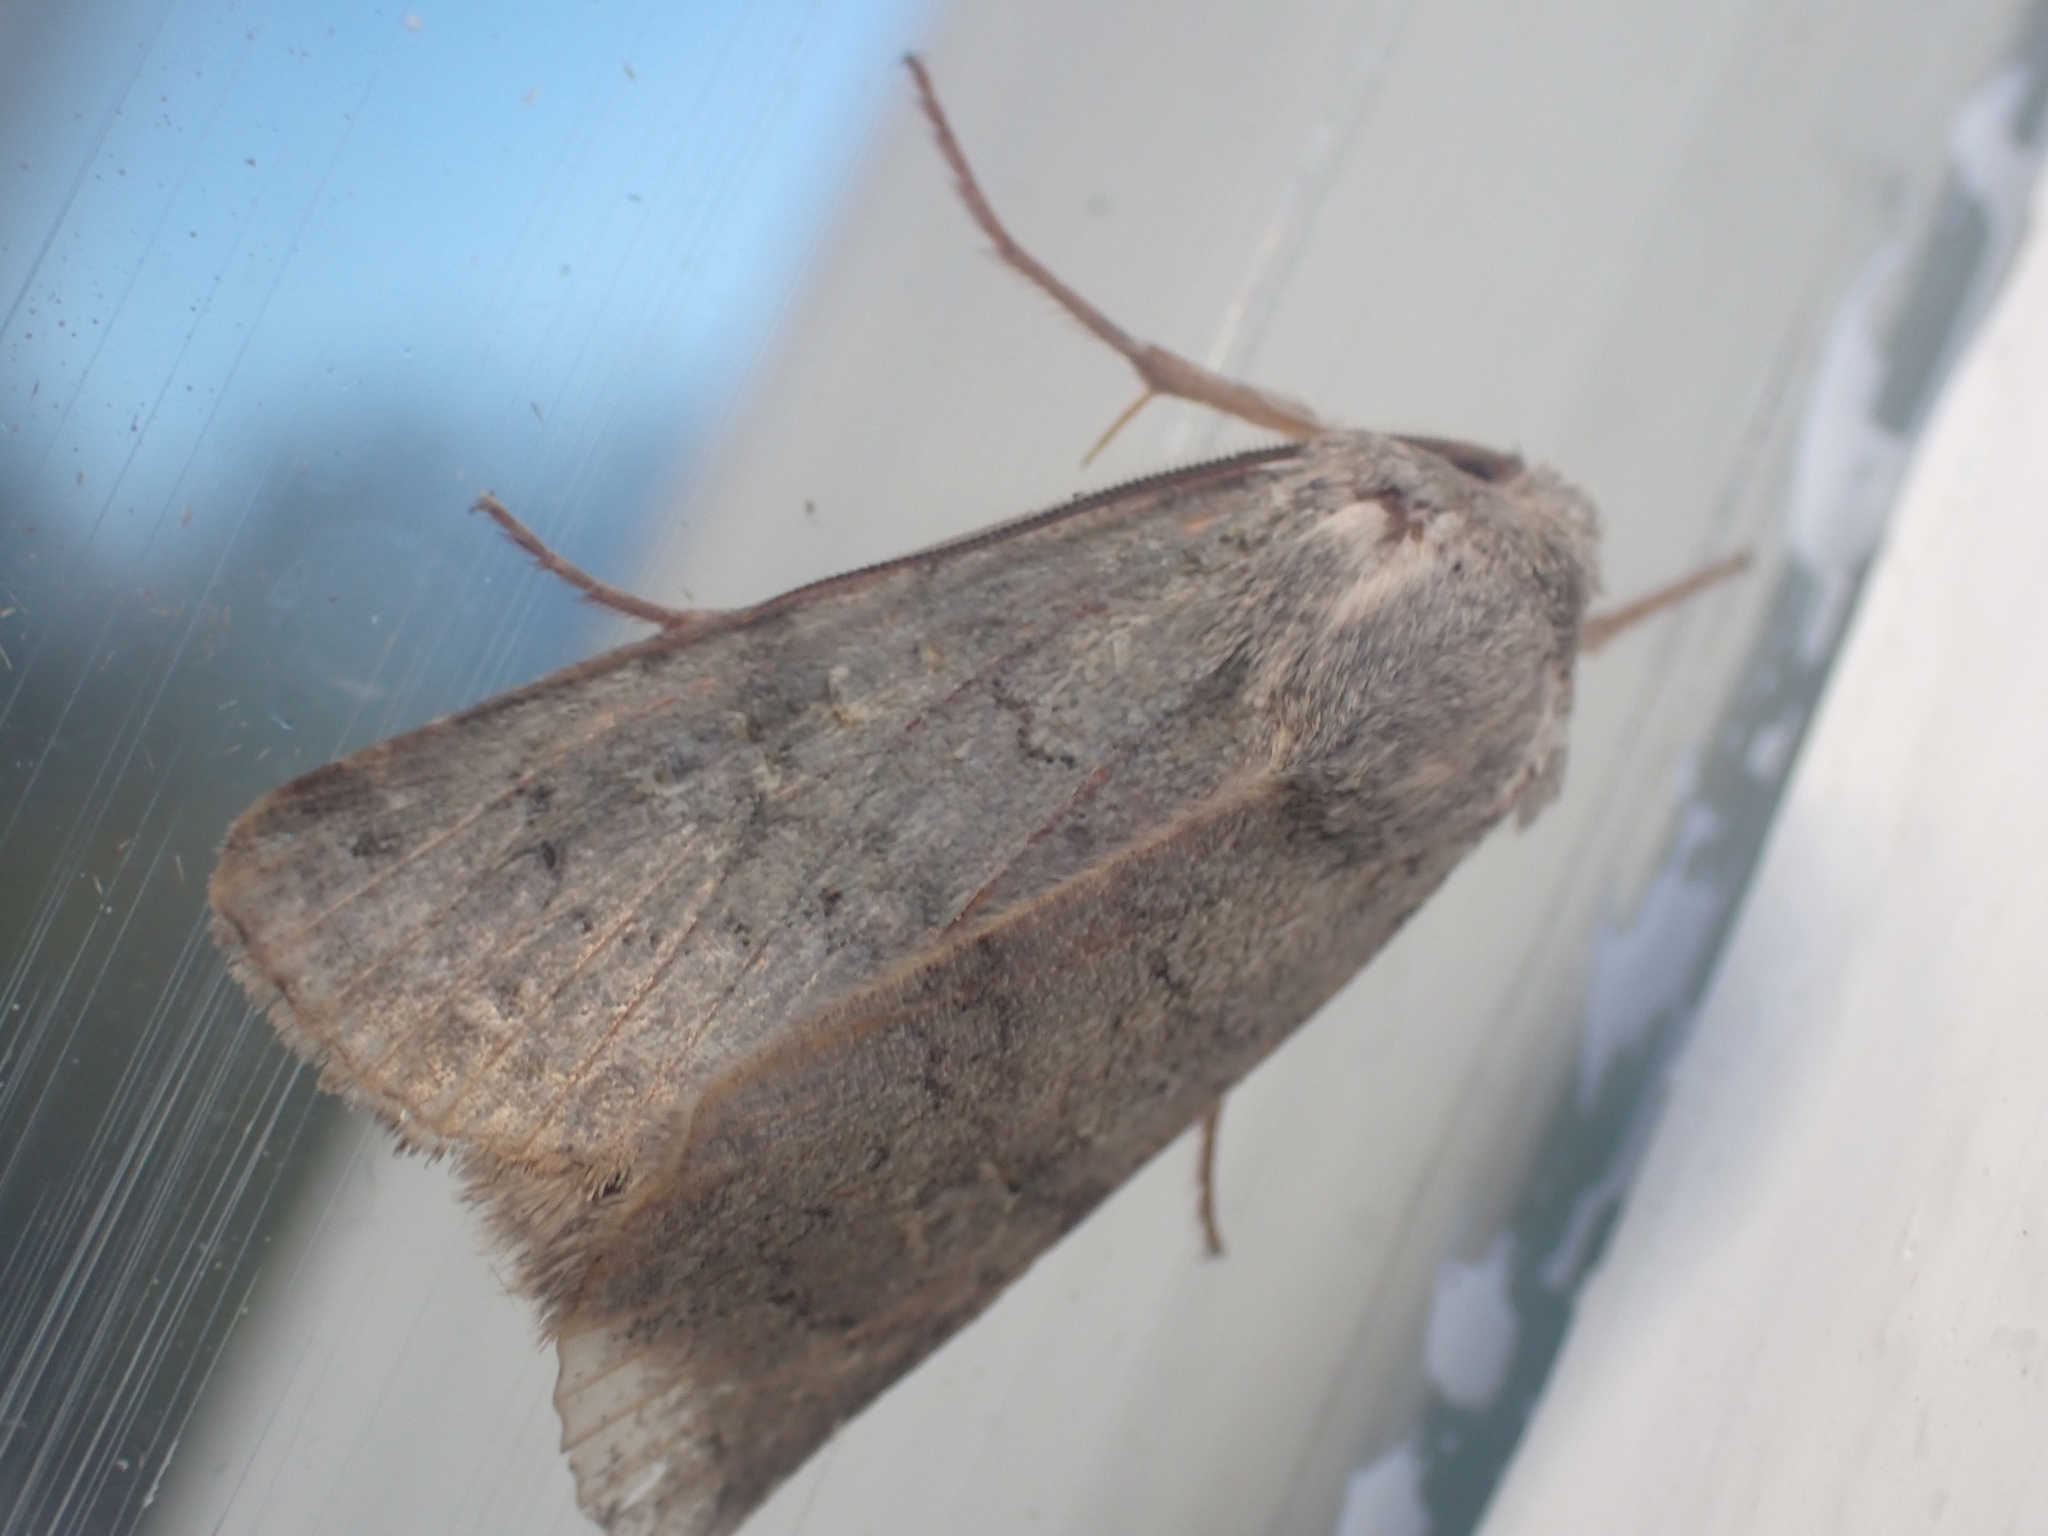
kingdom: Animalia
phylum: Arthropoda
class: Insecta
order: Lepidoptera
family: Noctuidae
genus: Ichneutica
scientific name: Ichneutica
